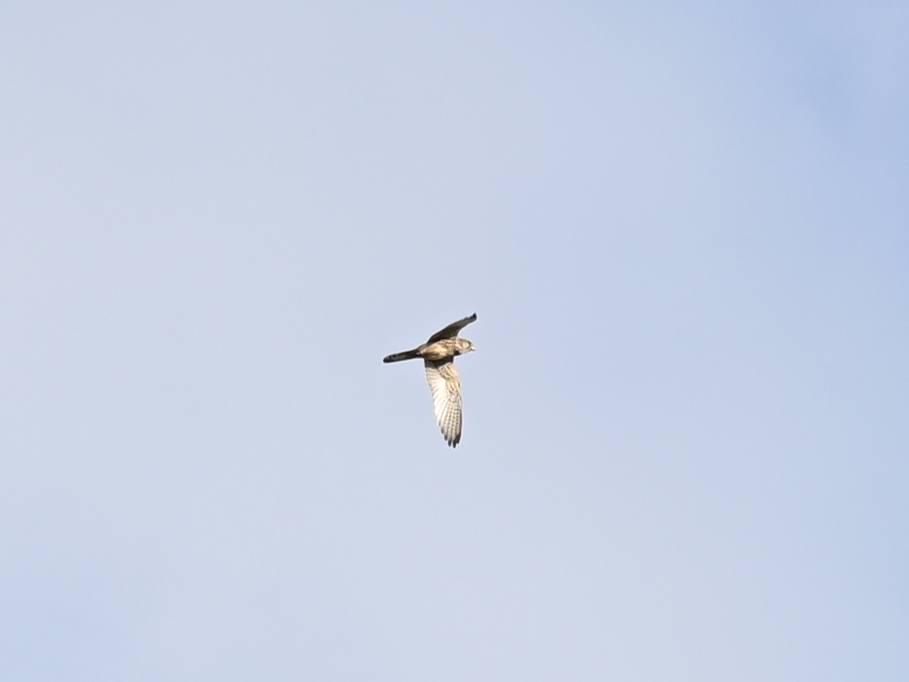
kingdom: Animalia
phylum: Chordata
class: Aves
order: Falconiformes
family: Falconidae
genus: Falco
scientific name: Falco tinnunculus
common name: Common kestrel
